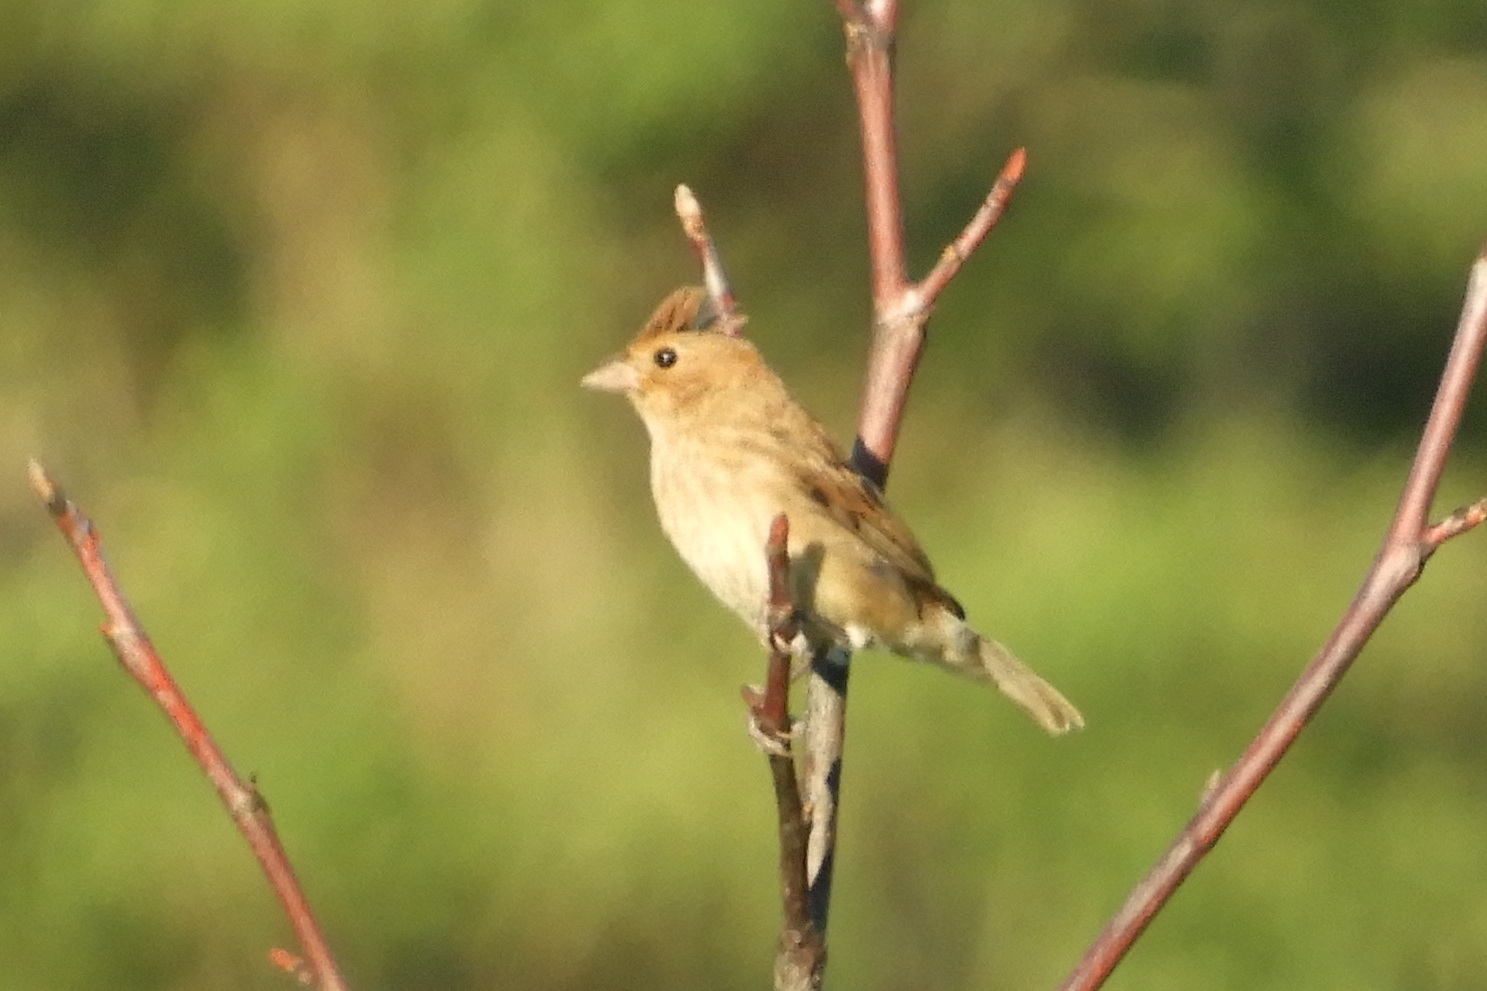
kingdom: Animalia
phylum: Chordata
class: Aves
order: Passeriformes
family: Cardinalidae
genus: Passerina
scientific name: Passerina cyanea
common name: Indigo bunting
